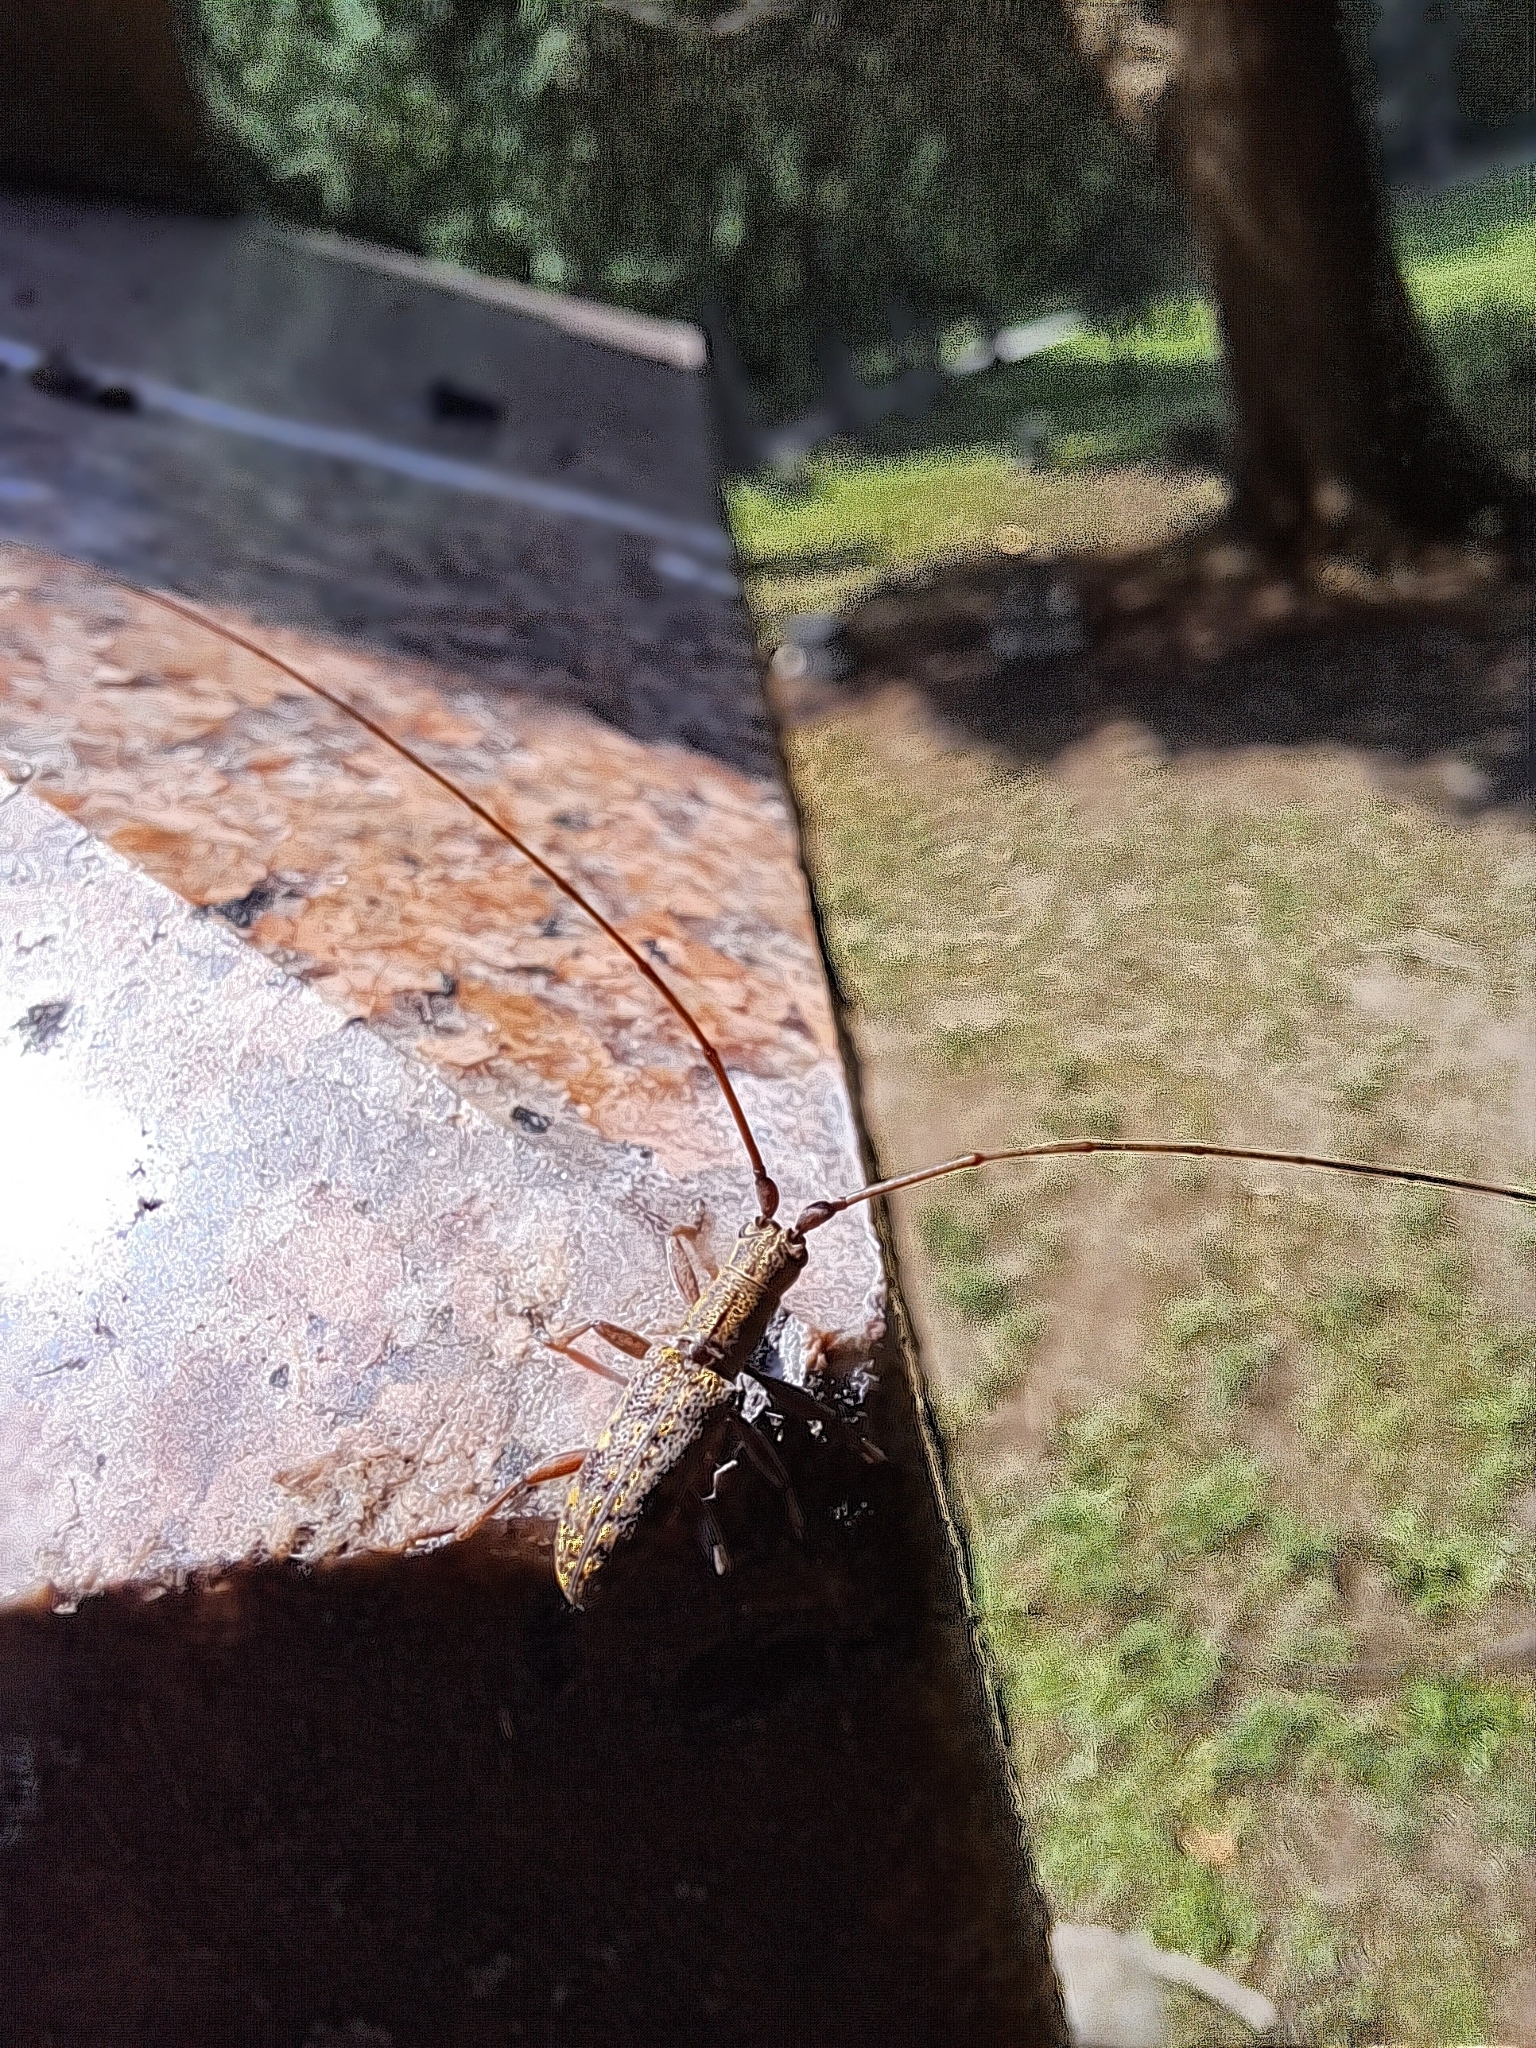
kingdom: Animalia
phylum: Arthropoda
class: Insecta
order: Coleoptera
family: Cerambycidae
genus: Dorcaschema
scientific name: Dorcaschema alternatum
